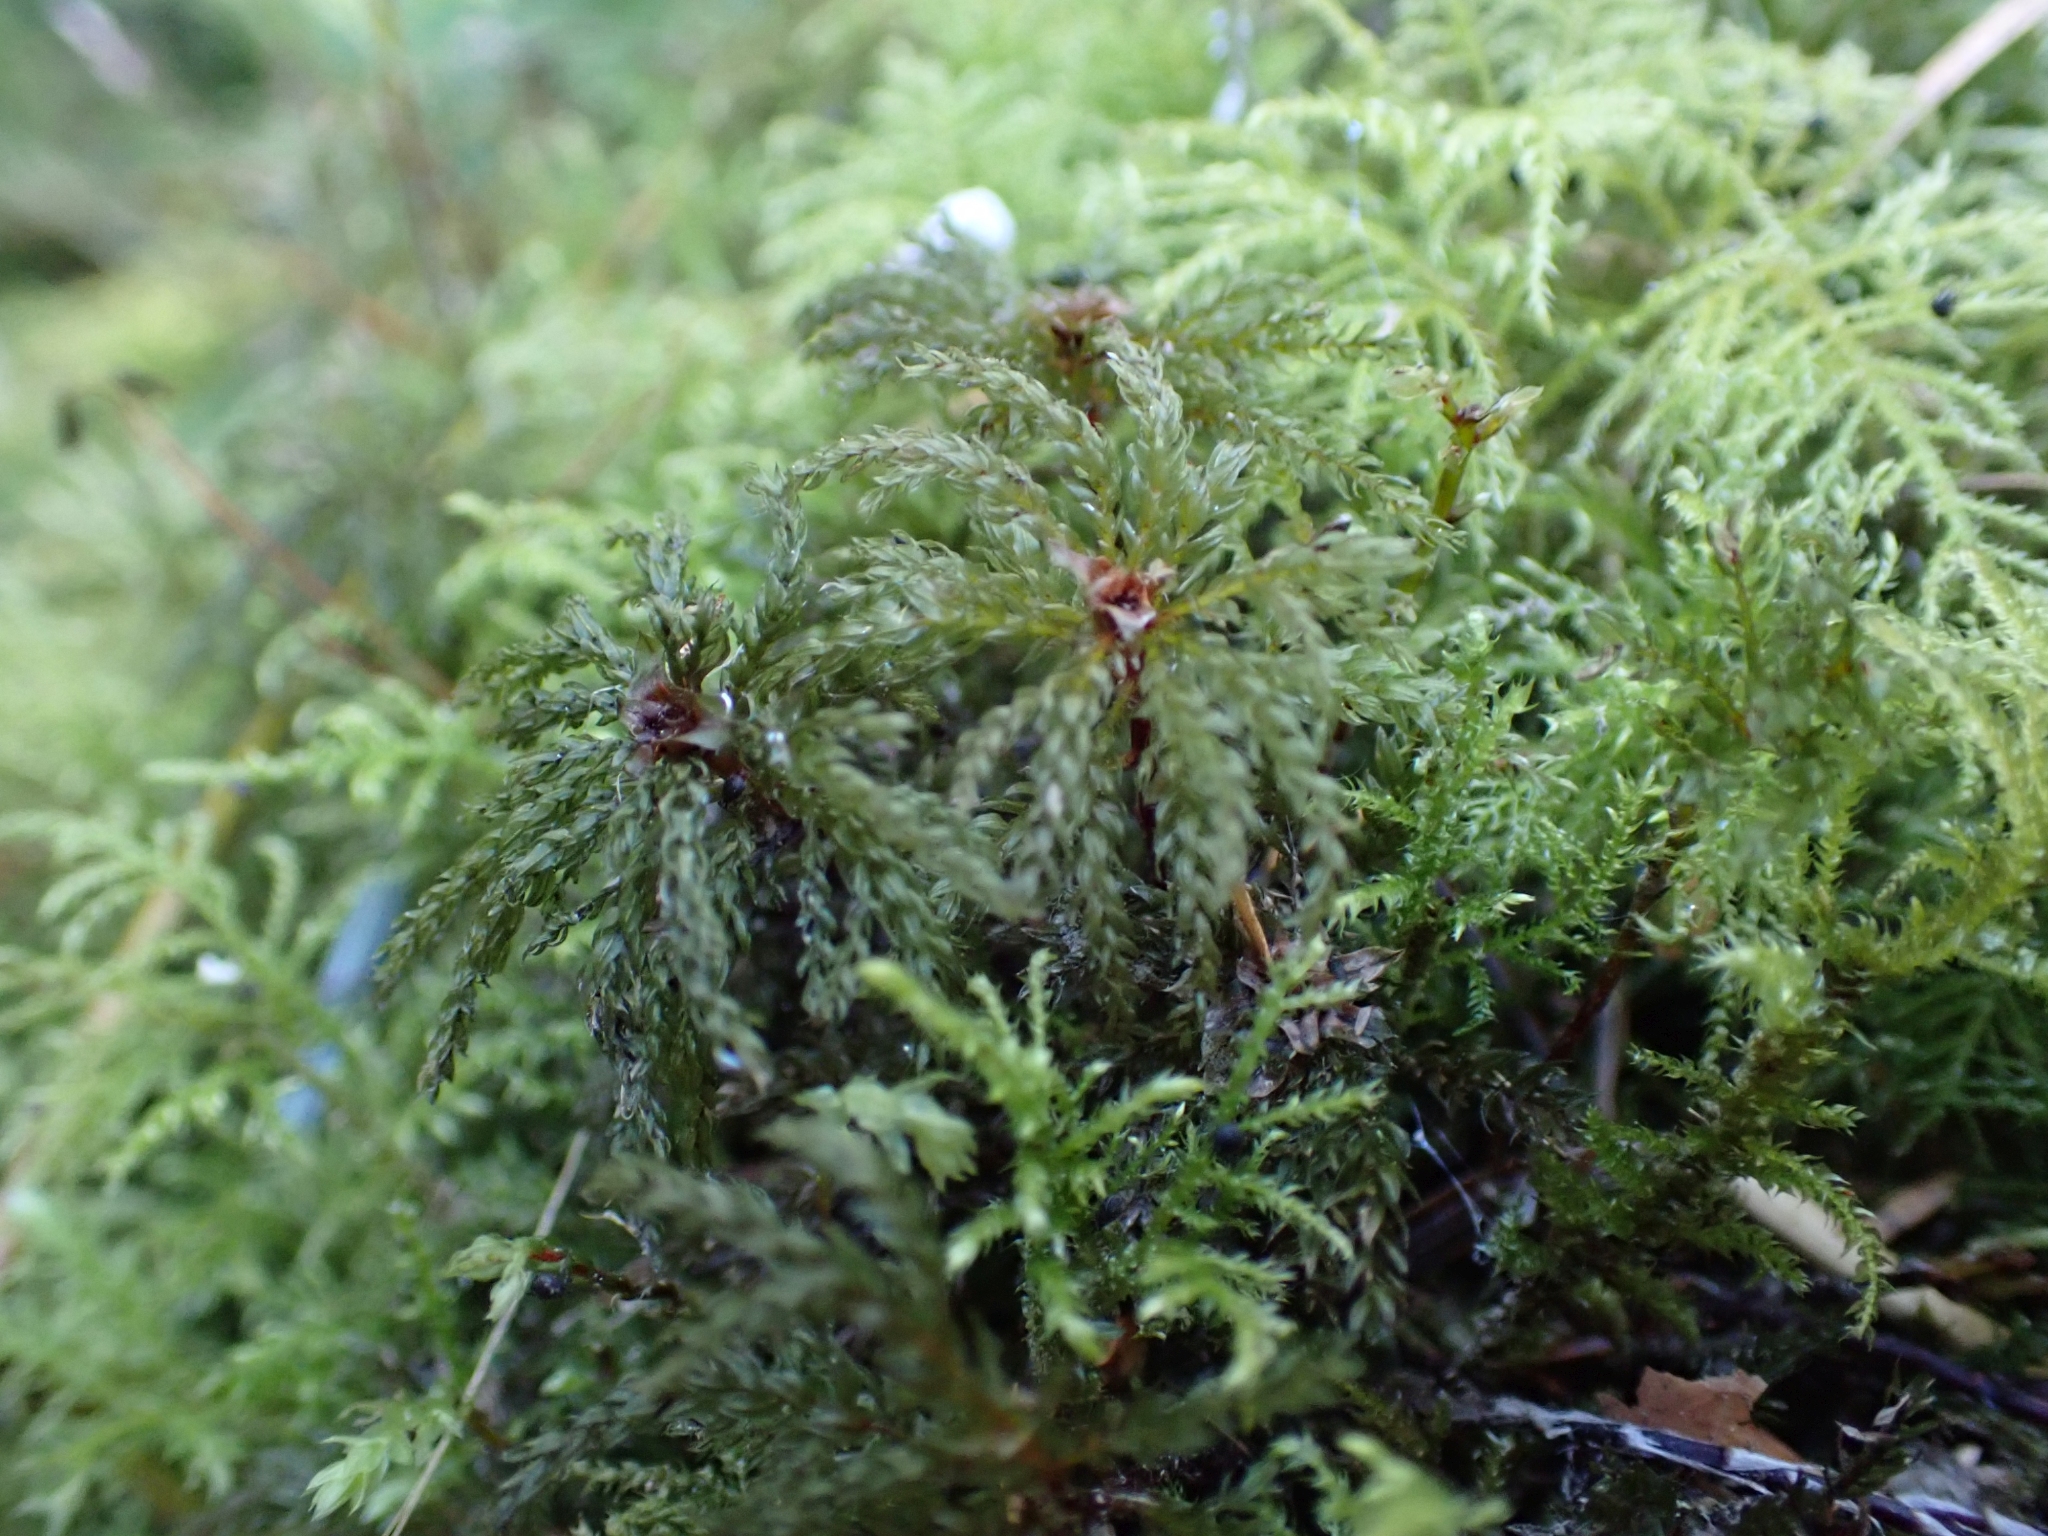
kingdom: Plantae
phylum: Bryophyta
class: Bryopsida
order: Bryales
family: Mniaceae
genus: Leucolepis
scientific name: Leucolepis acanthoneura
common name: Leucolepis umbrella moss
